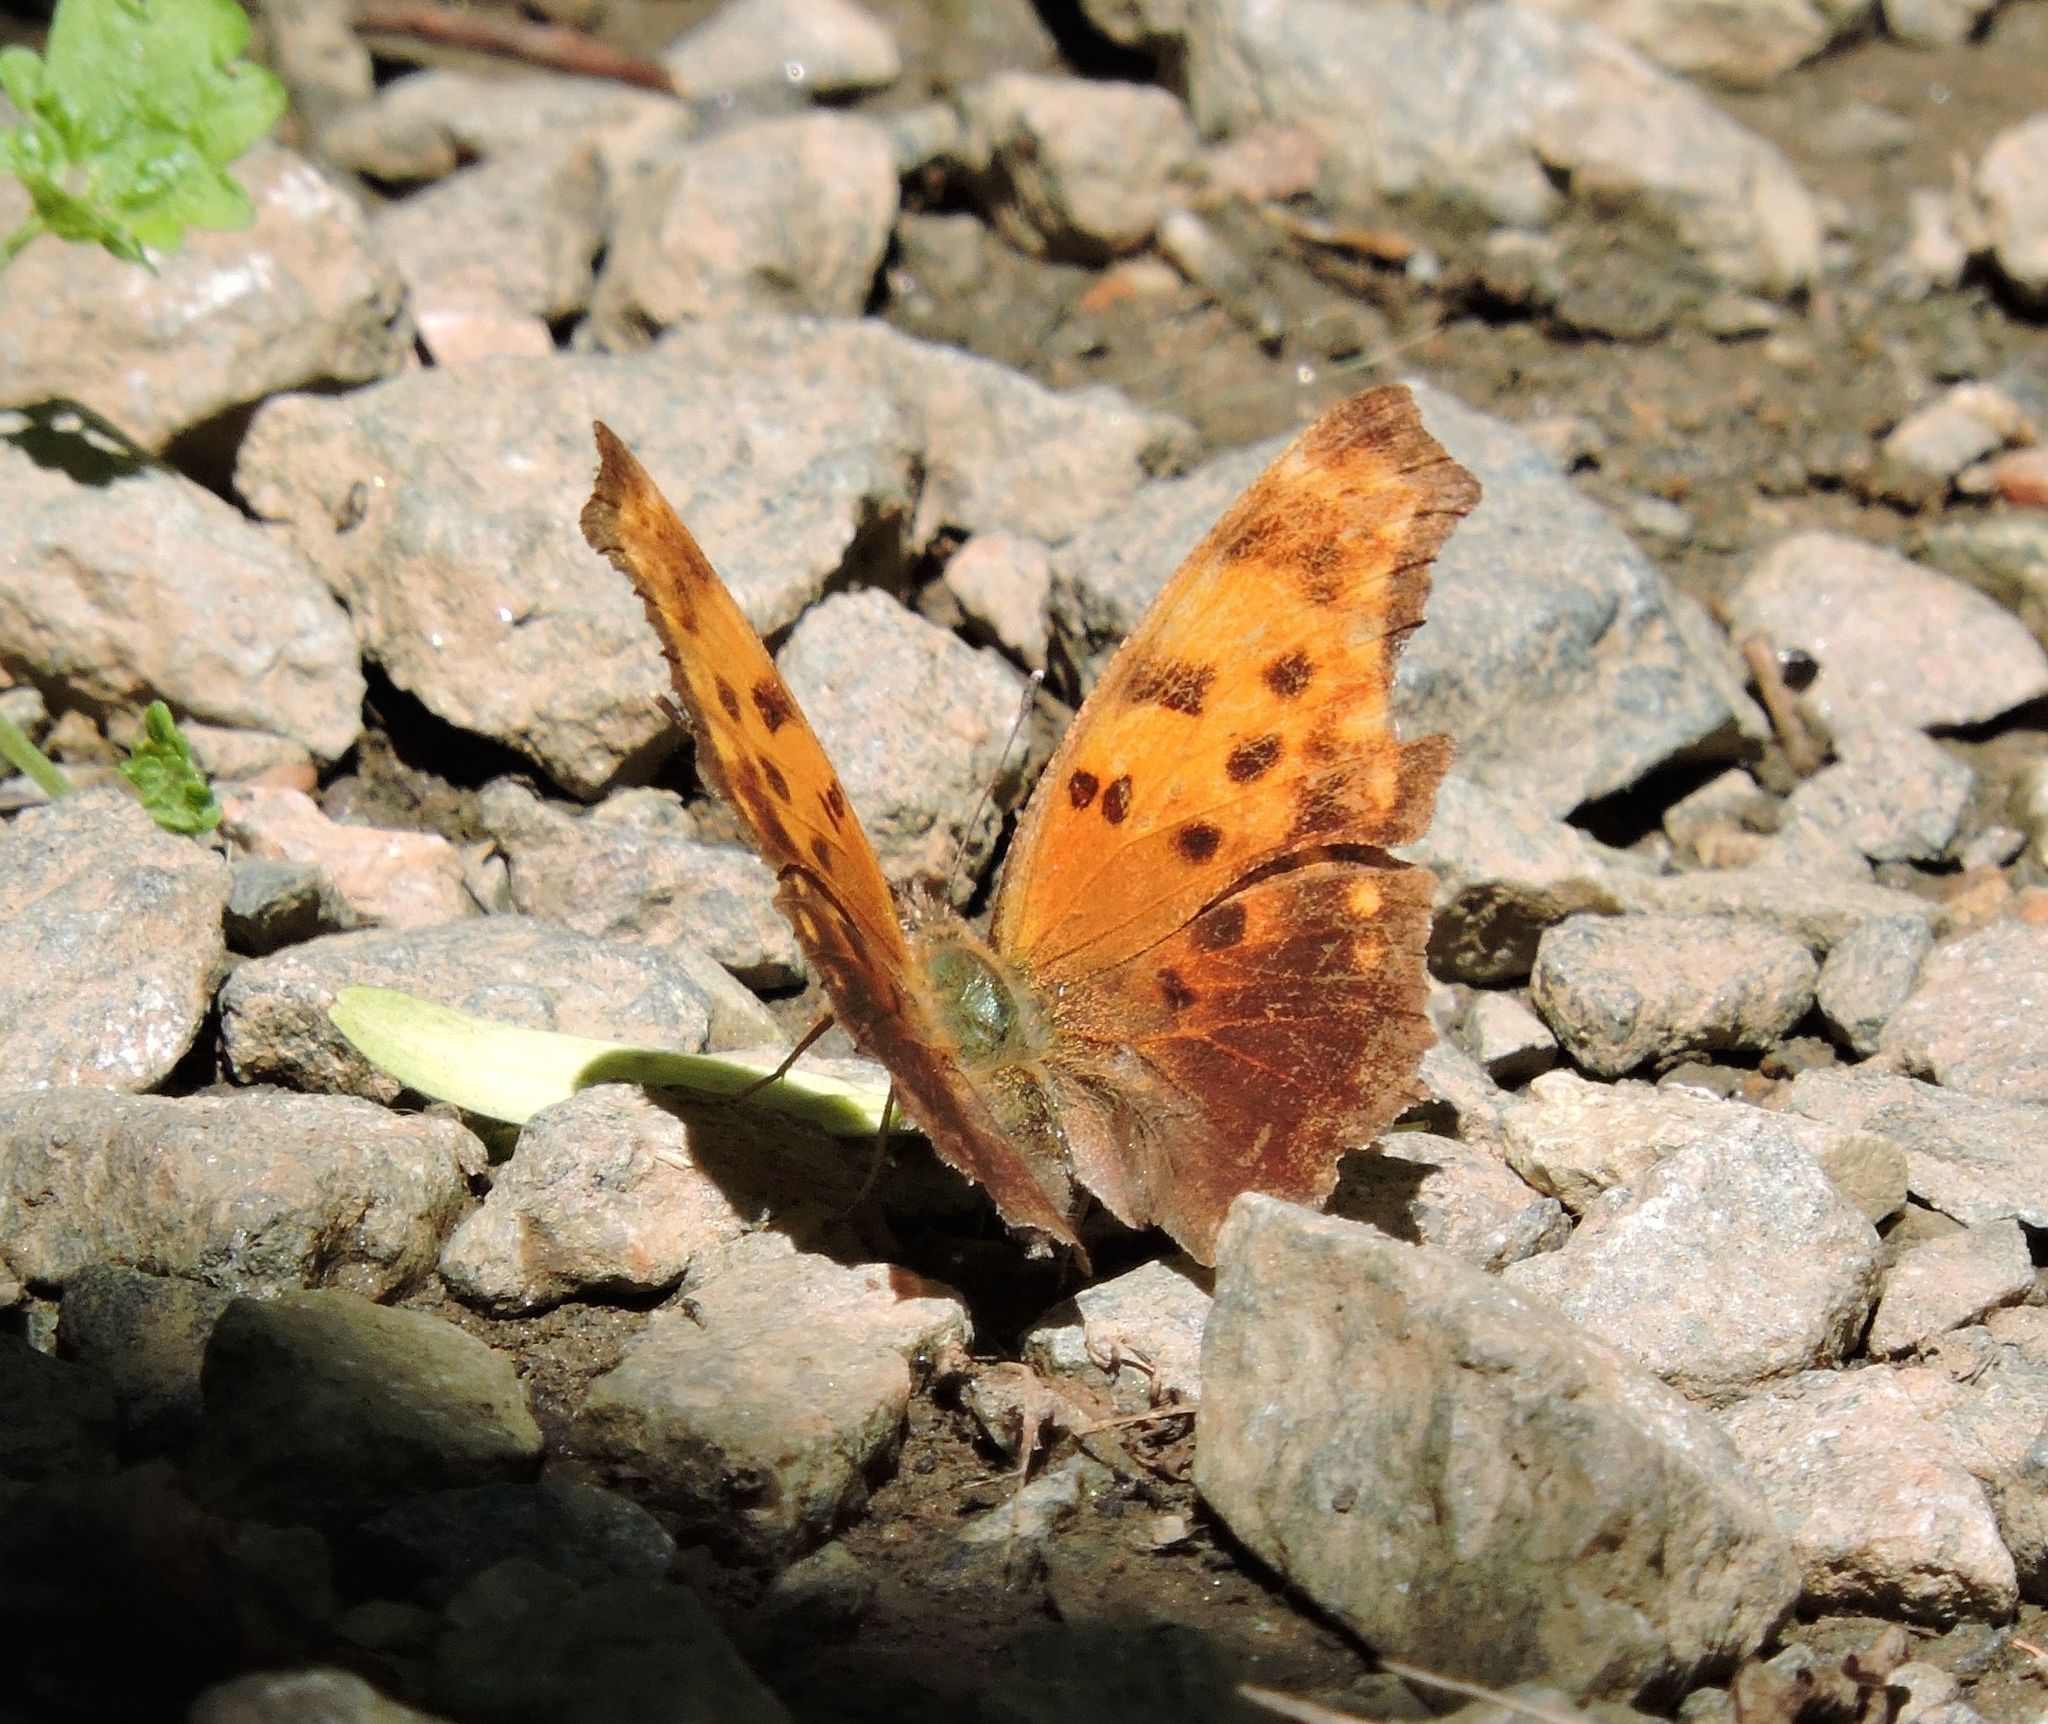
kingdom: Animalia
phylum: Arthropoda
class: Insecta
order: Lepidoptera
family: Nymphalidae
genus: Polygonia
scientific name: Polygonia comma
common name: Eastern comma
